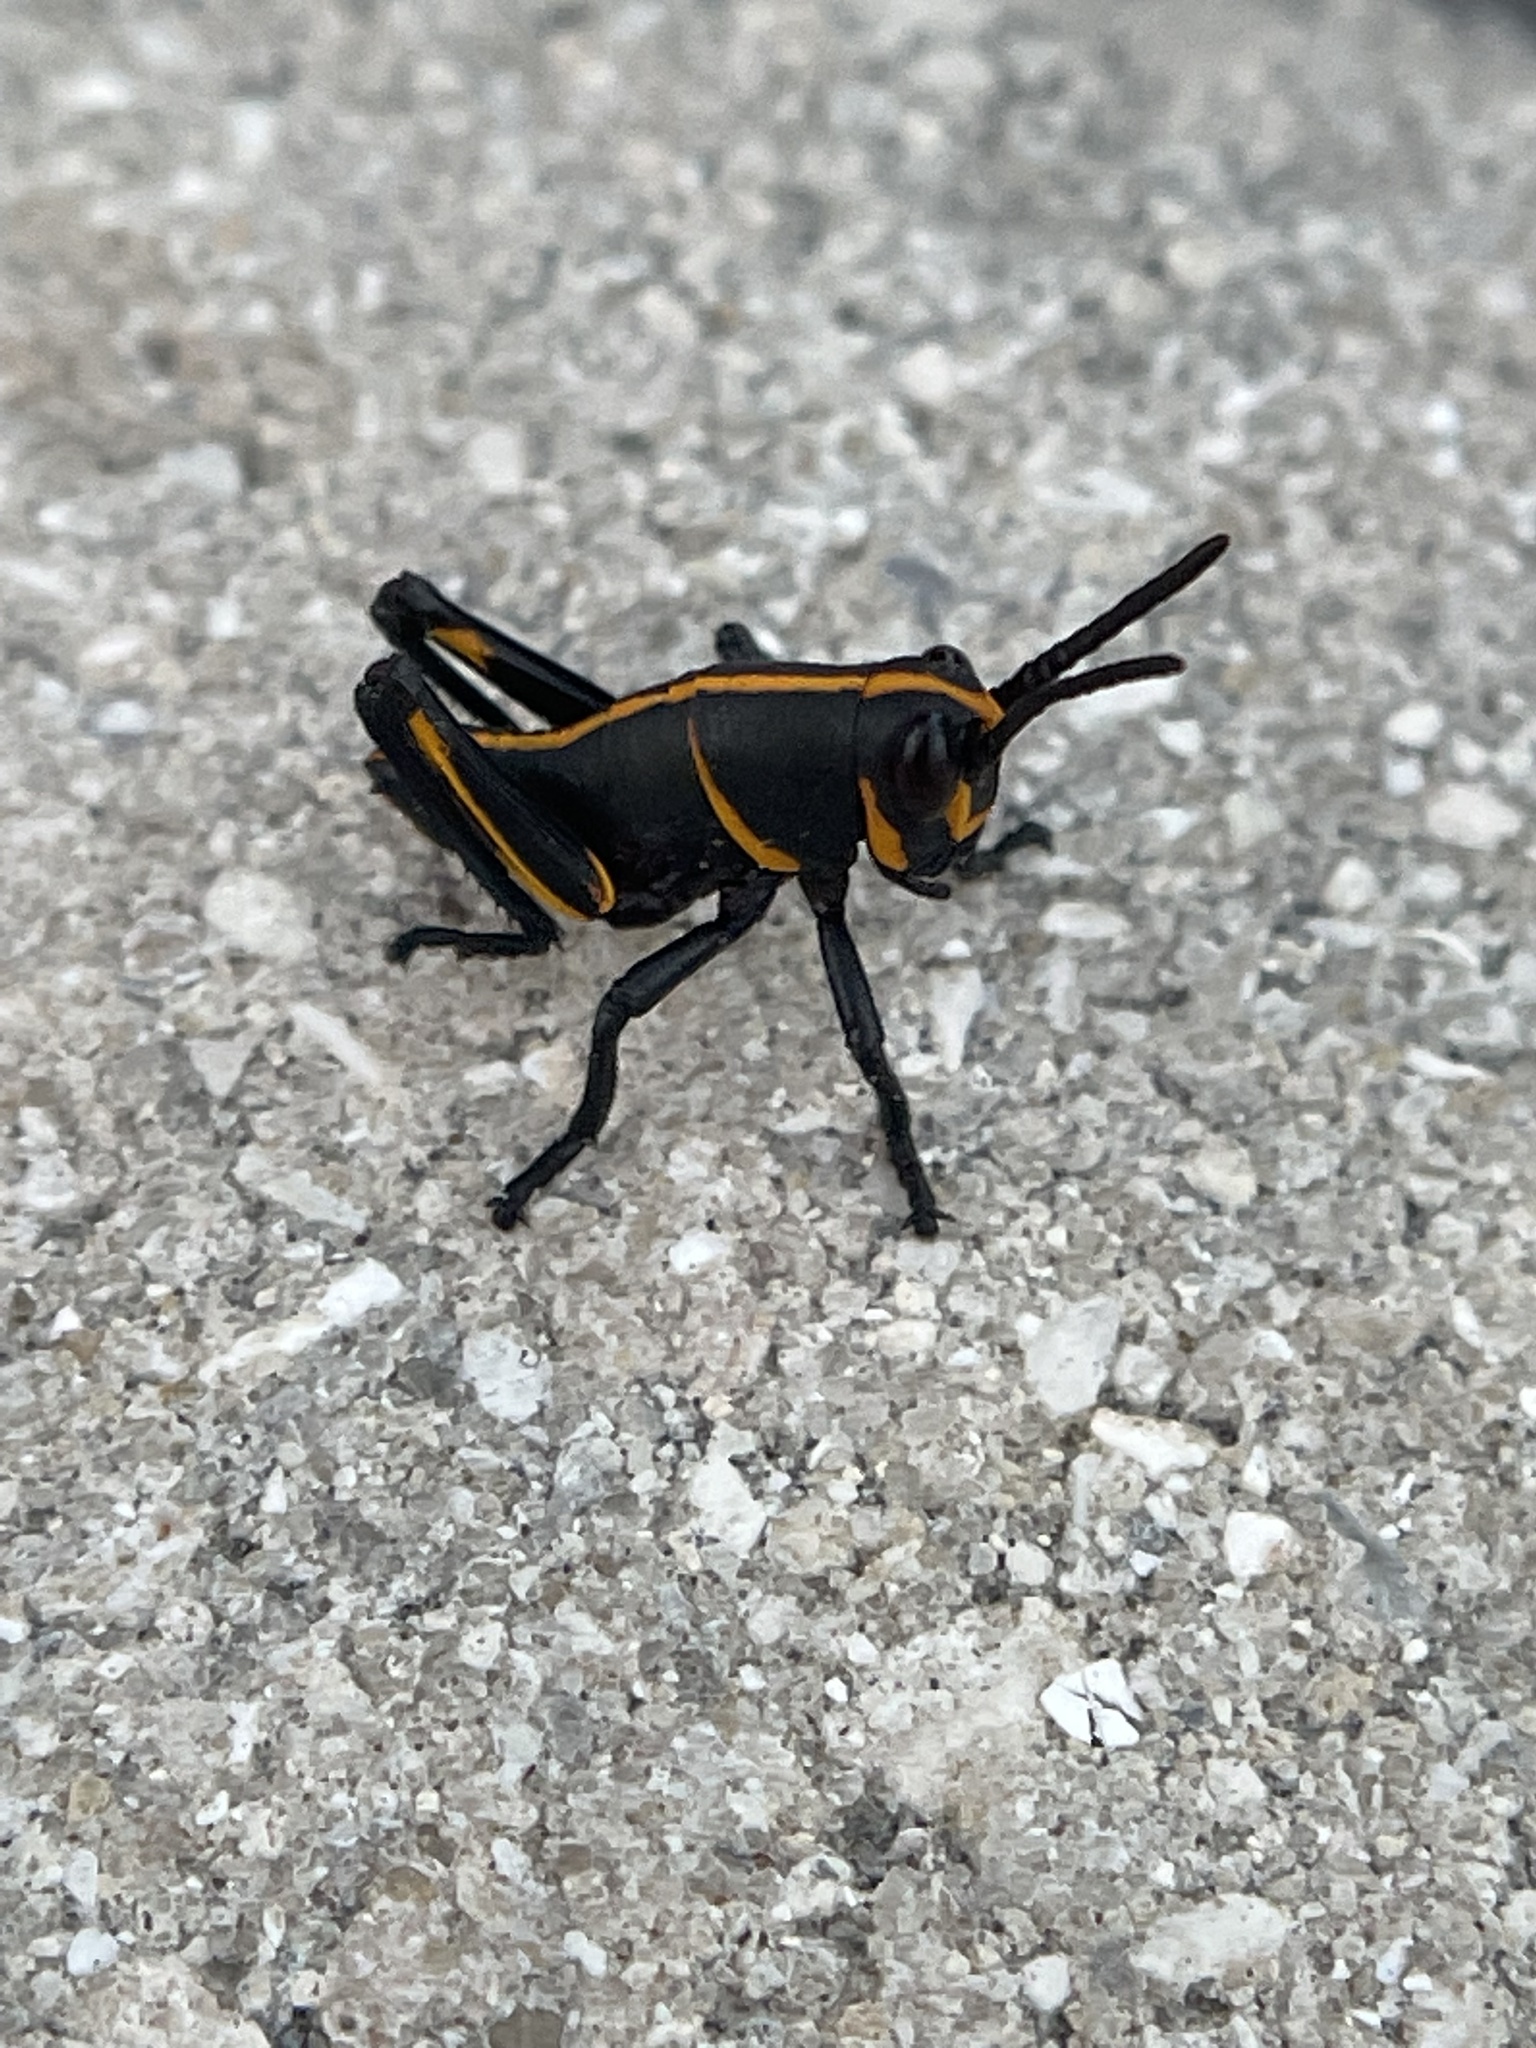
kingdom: Animalia
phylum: Arthropoda
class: Insecta
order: Orthoptera
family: Romaleidae
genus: Romalea
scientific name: Romalea microptera
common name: Eastern lubber grasshopper
